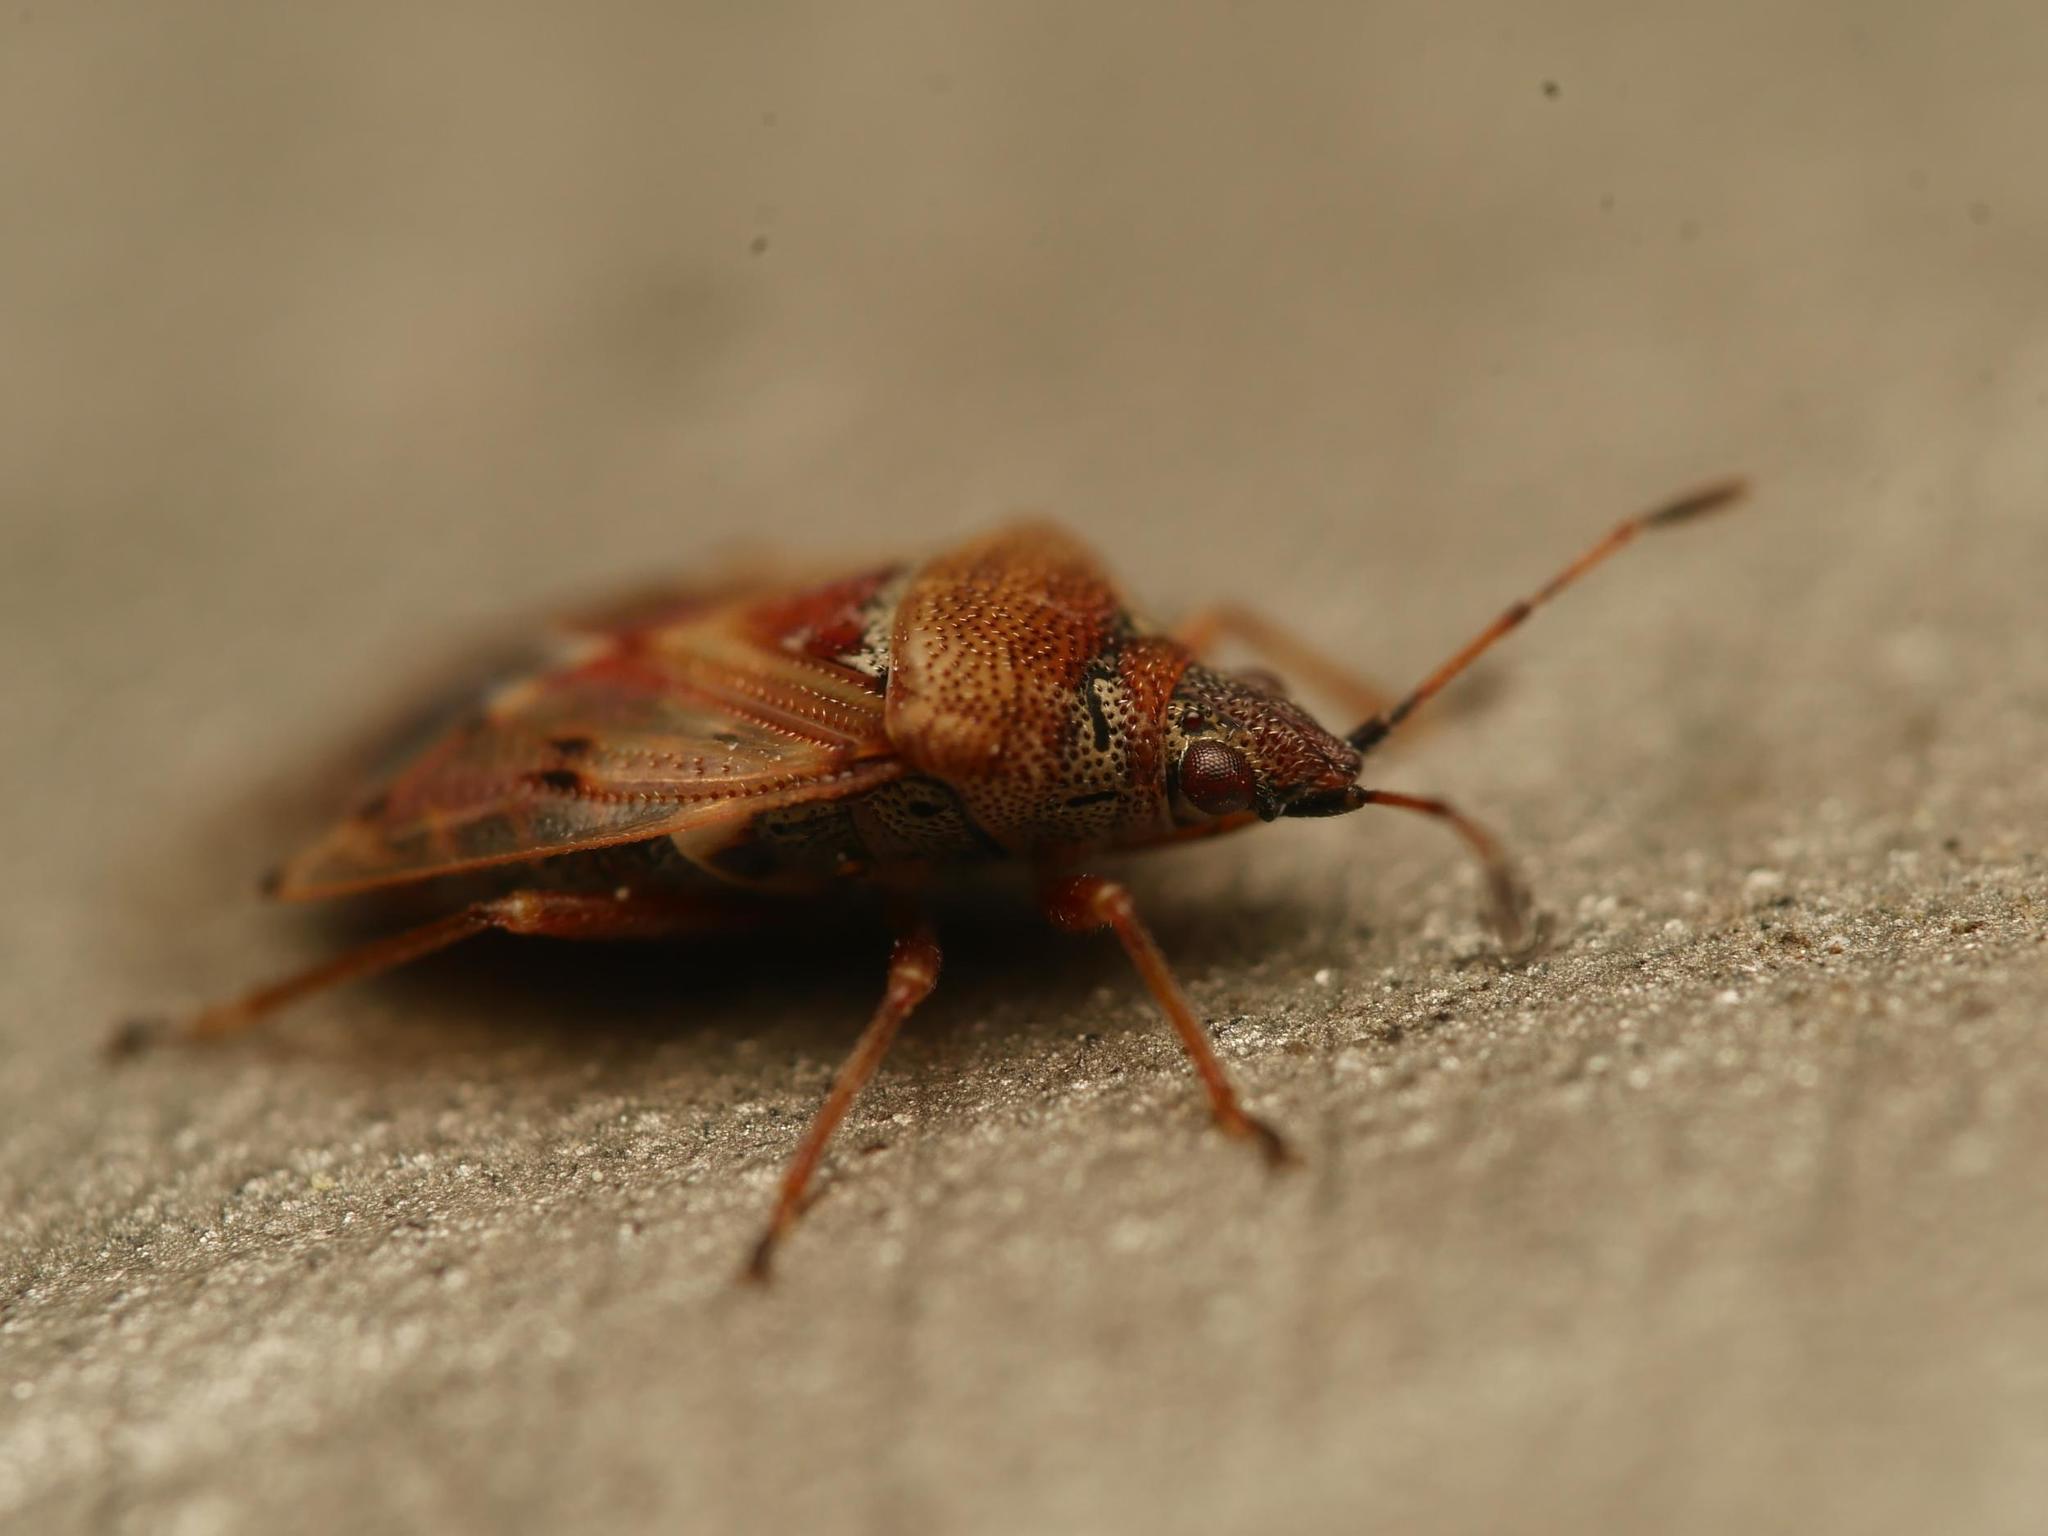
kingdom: Animalia
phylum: Arthropoda
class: Insecta
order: Hemiptera
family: Lygaeidae
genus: Kleidocerys
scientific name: Kleidocerys resedae
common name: Birch catkin bug
